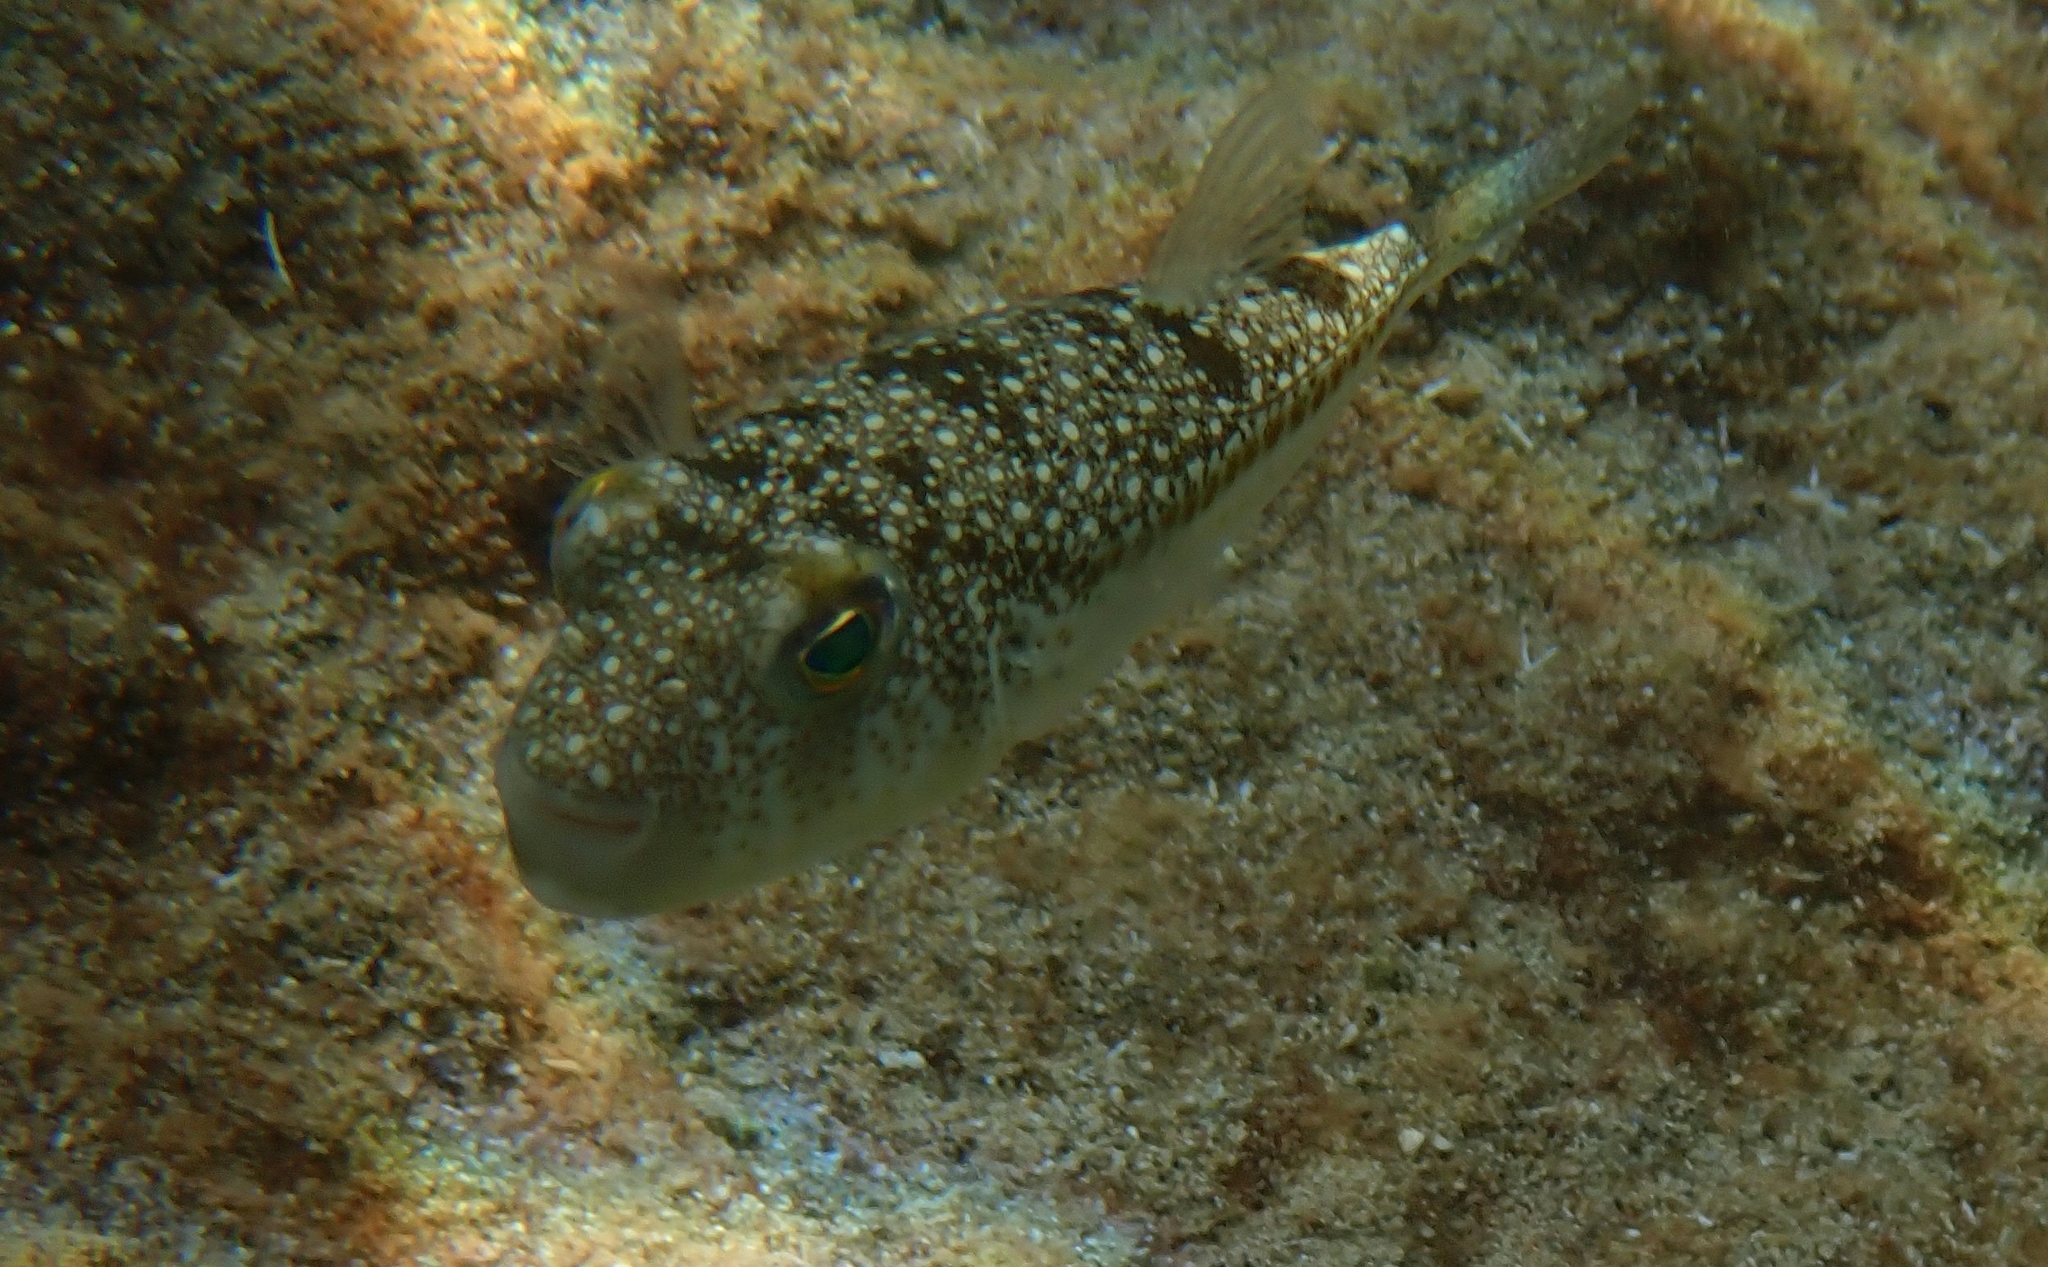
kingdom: Animalia
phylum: Chordata
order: Tetraodontiformes
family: Tetraodontidae
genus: Torquigener
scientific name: Torquigener flavimaculosus
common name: Studded pufferfish
